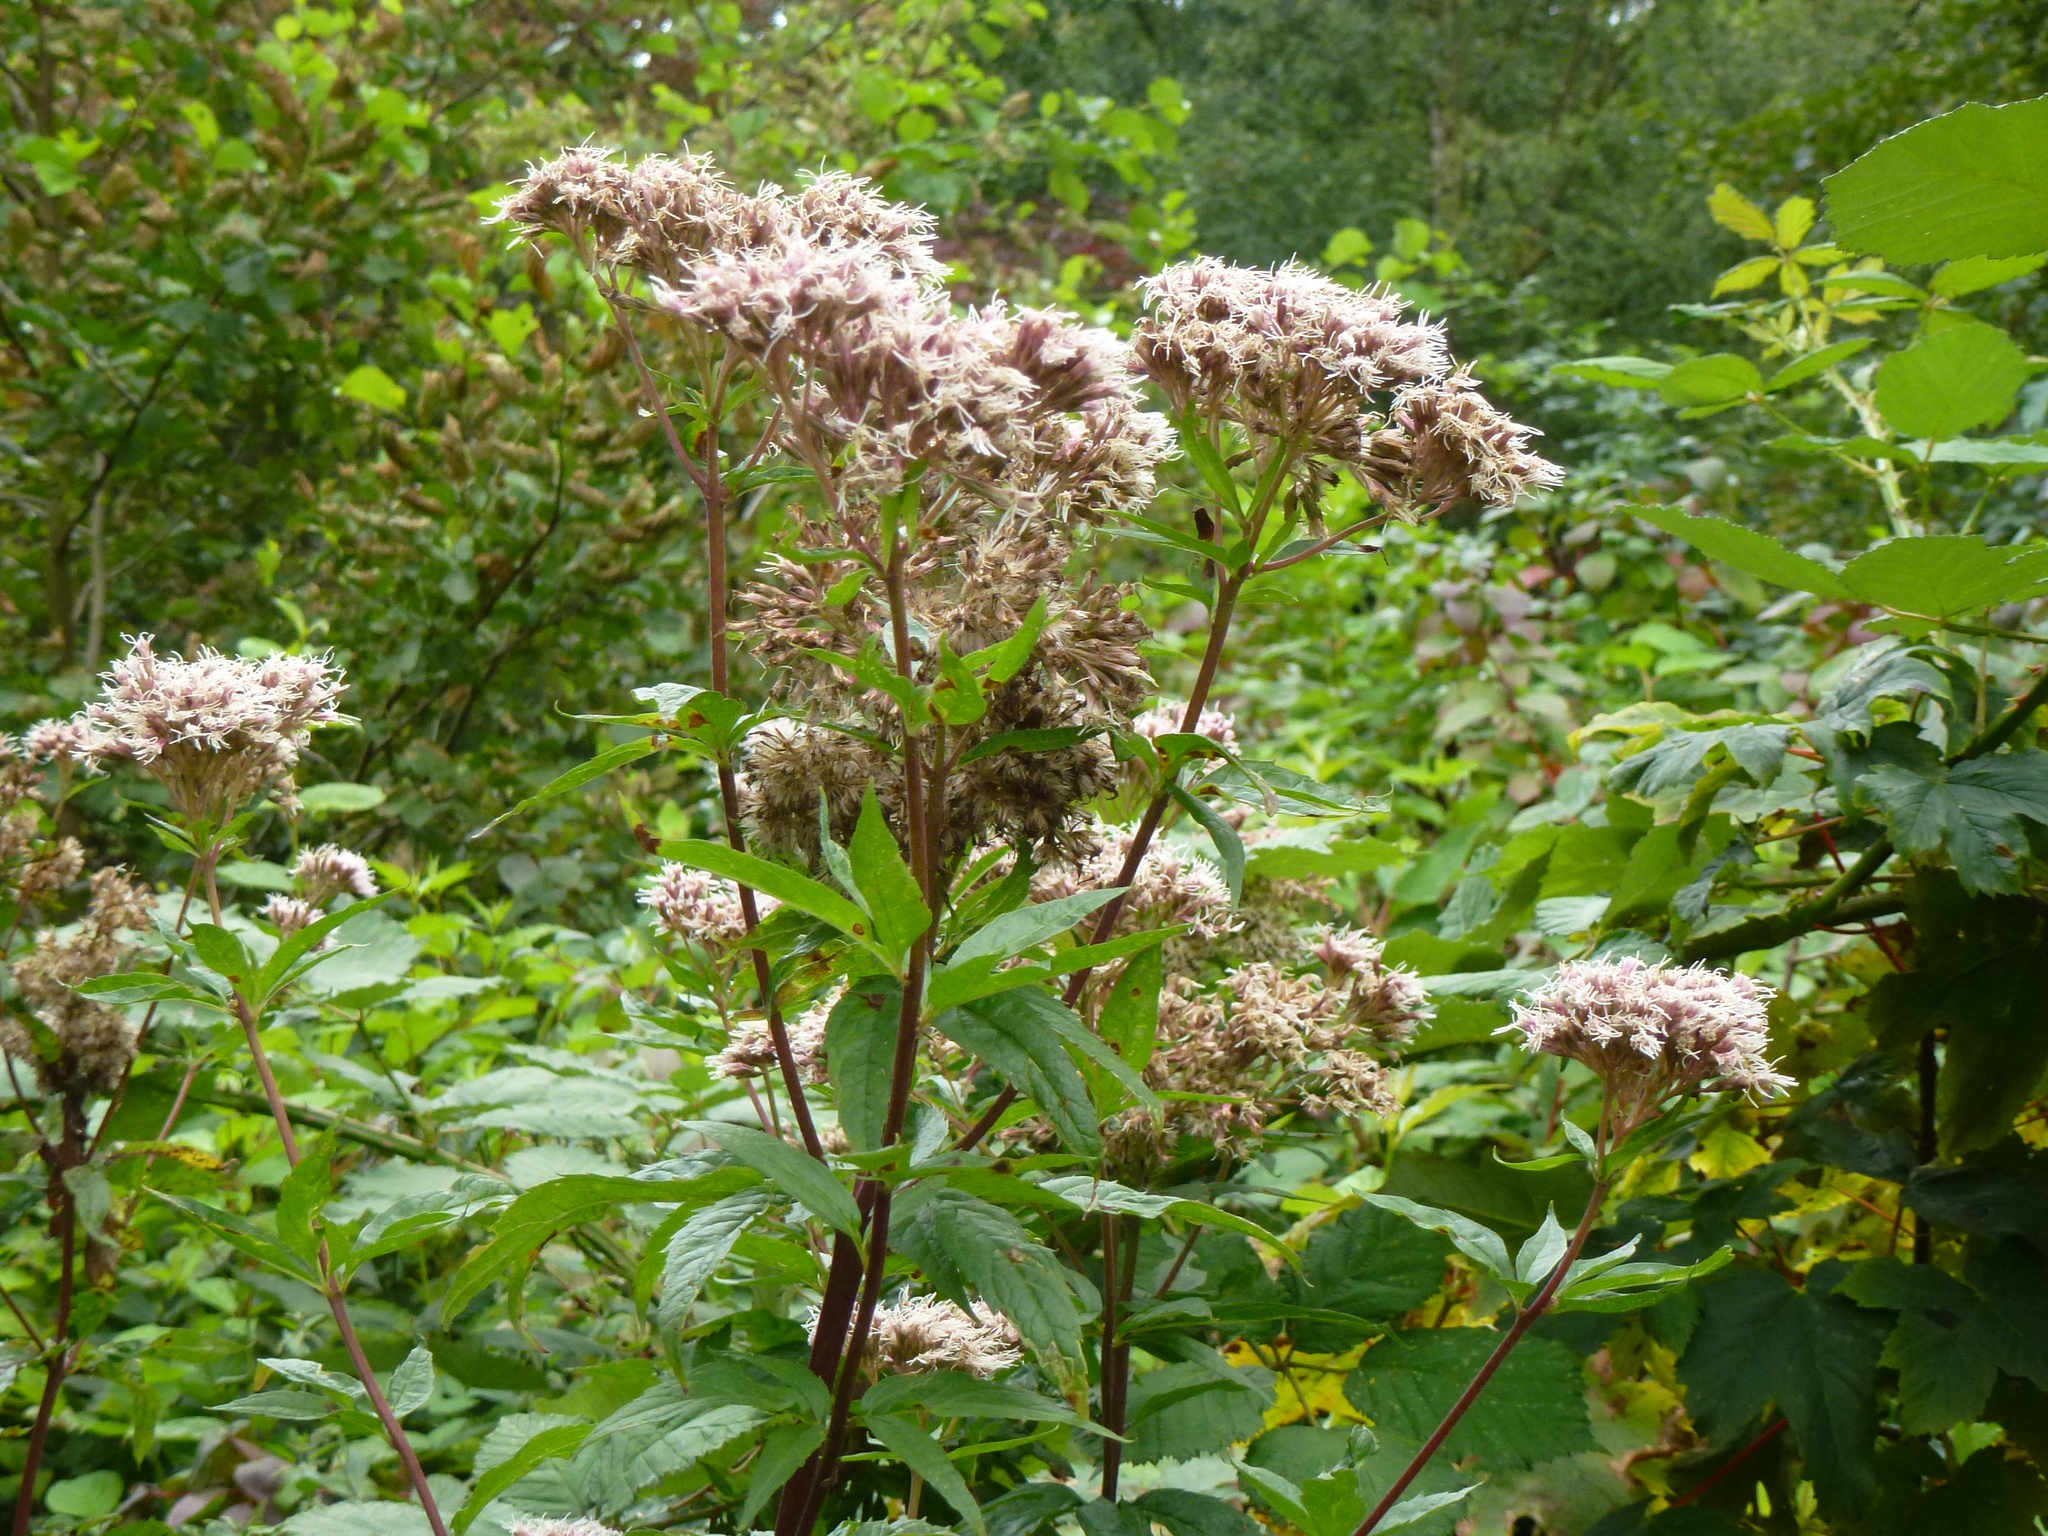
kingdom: Plantae
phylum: Tracheophyta
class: Magnoliopsida
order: Asterales
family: Asteraceae
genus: Eupatorium
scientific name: Eupatorium cannabinum
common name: Hemp-agrimony
